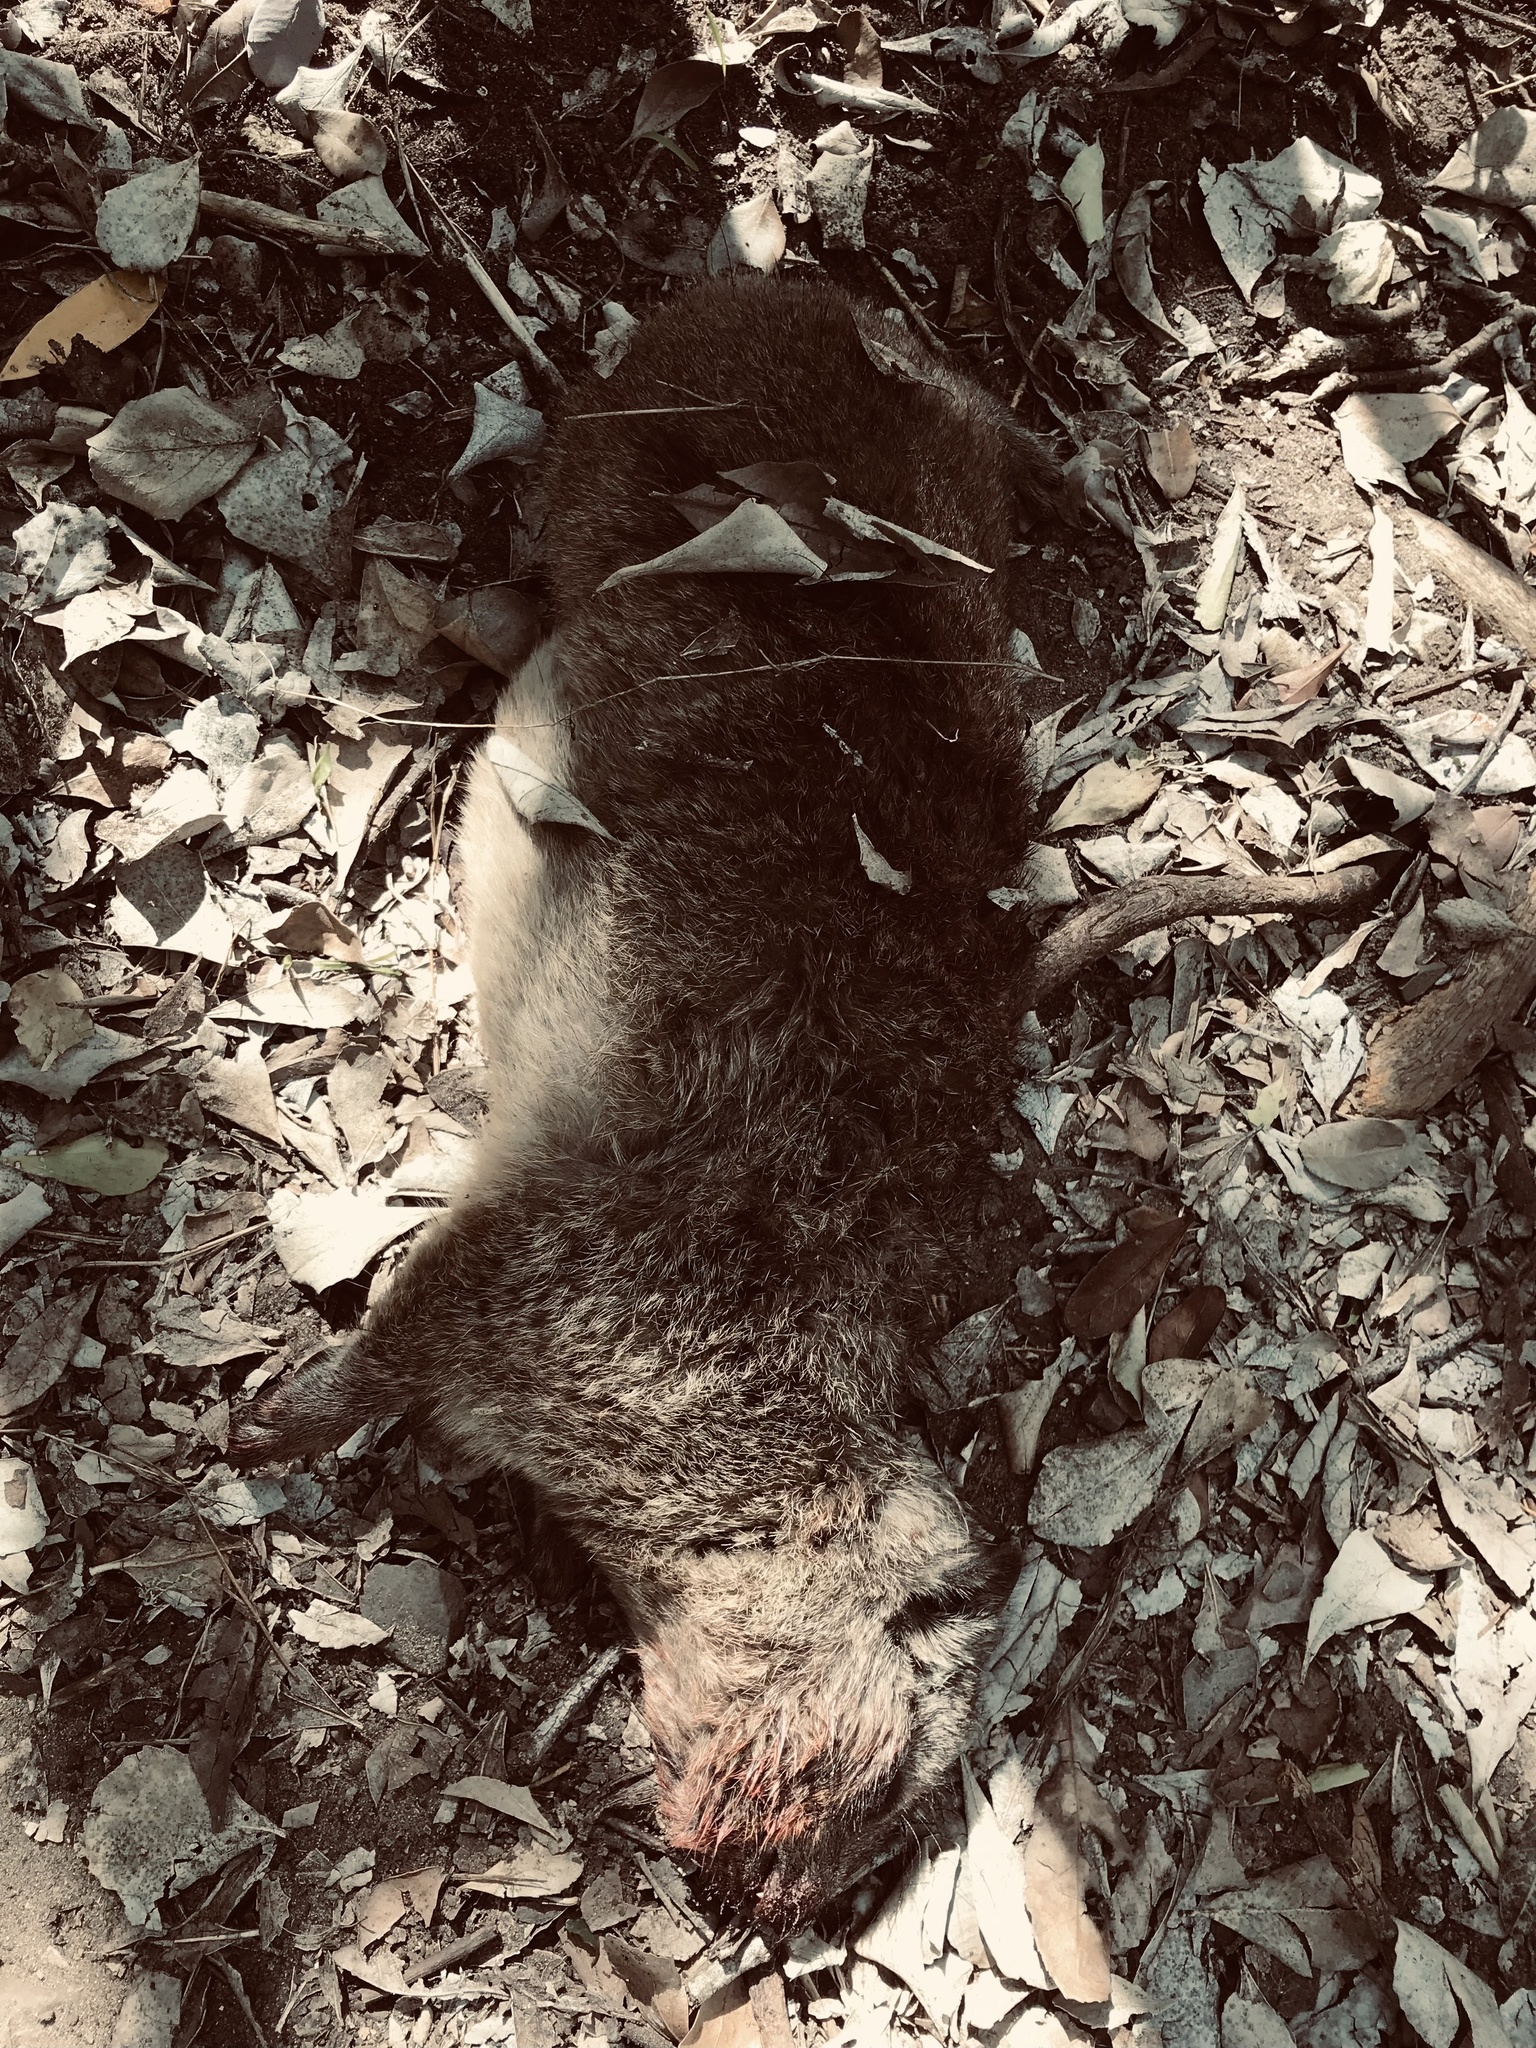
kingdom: Animalia
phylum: Chordata
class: Mammalia
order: Hyracoidea
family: Procaviidae
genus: Procavia
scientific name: Procavia capensis
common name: Rock hyrax
